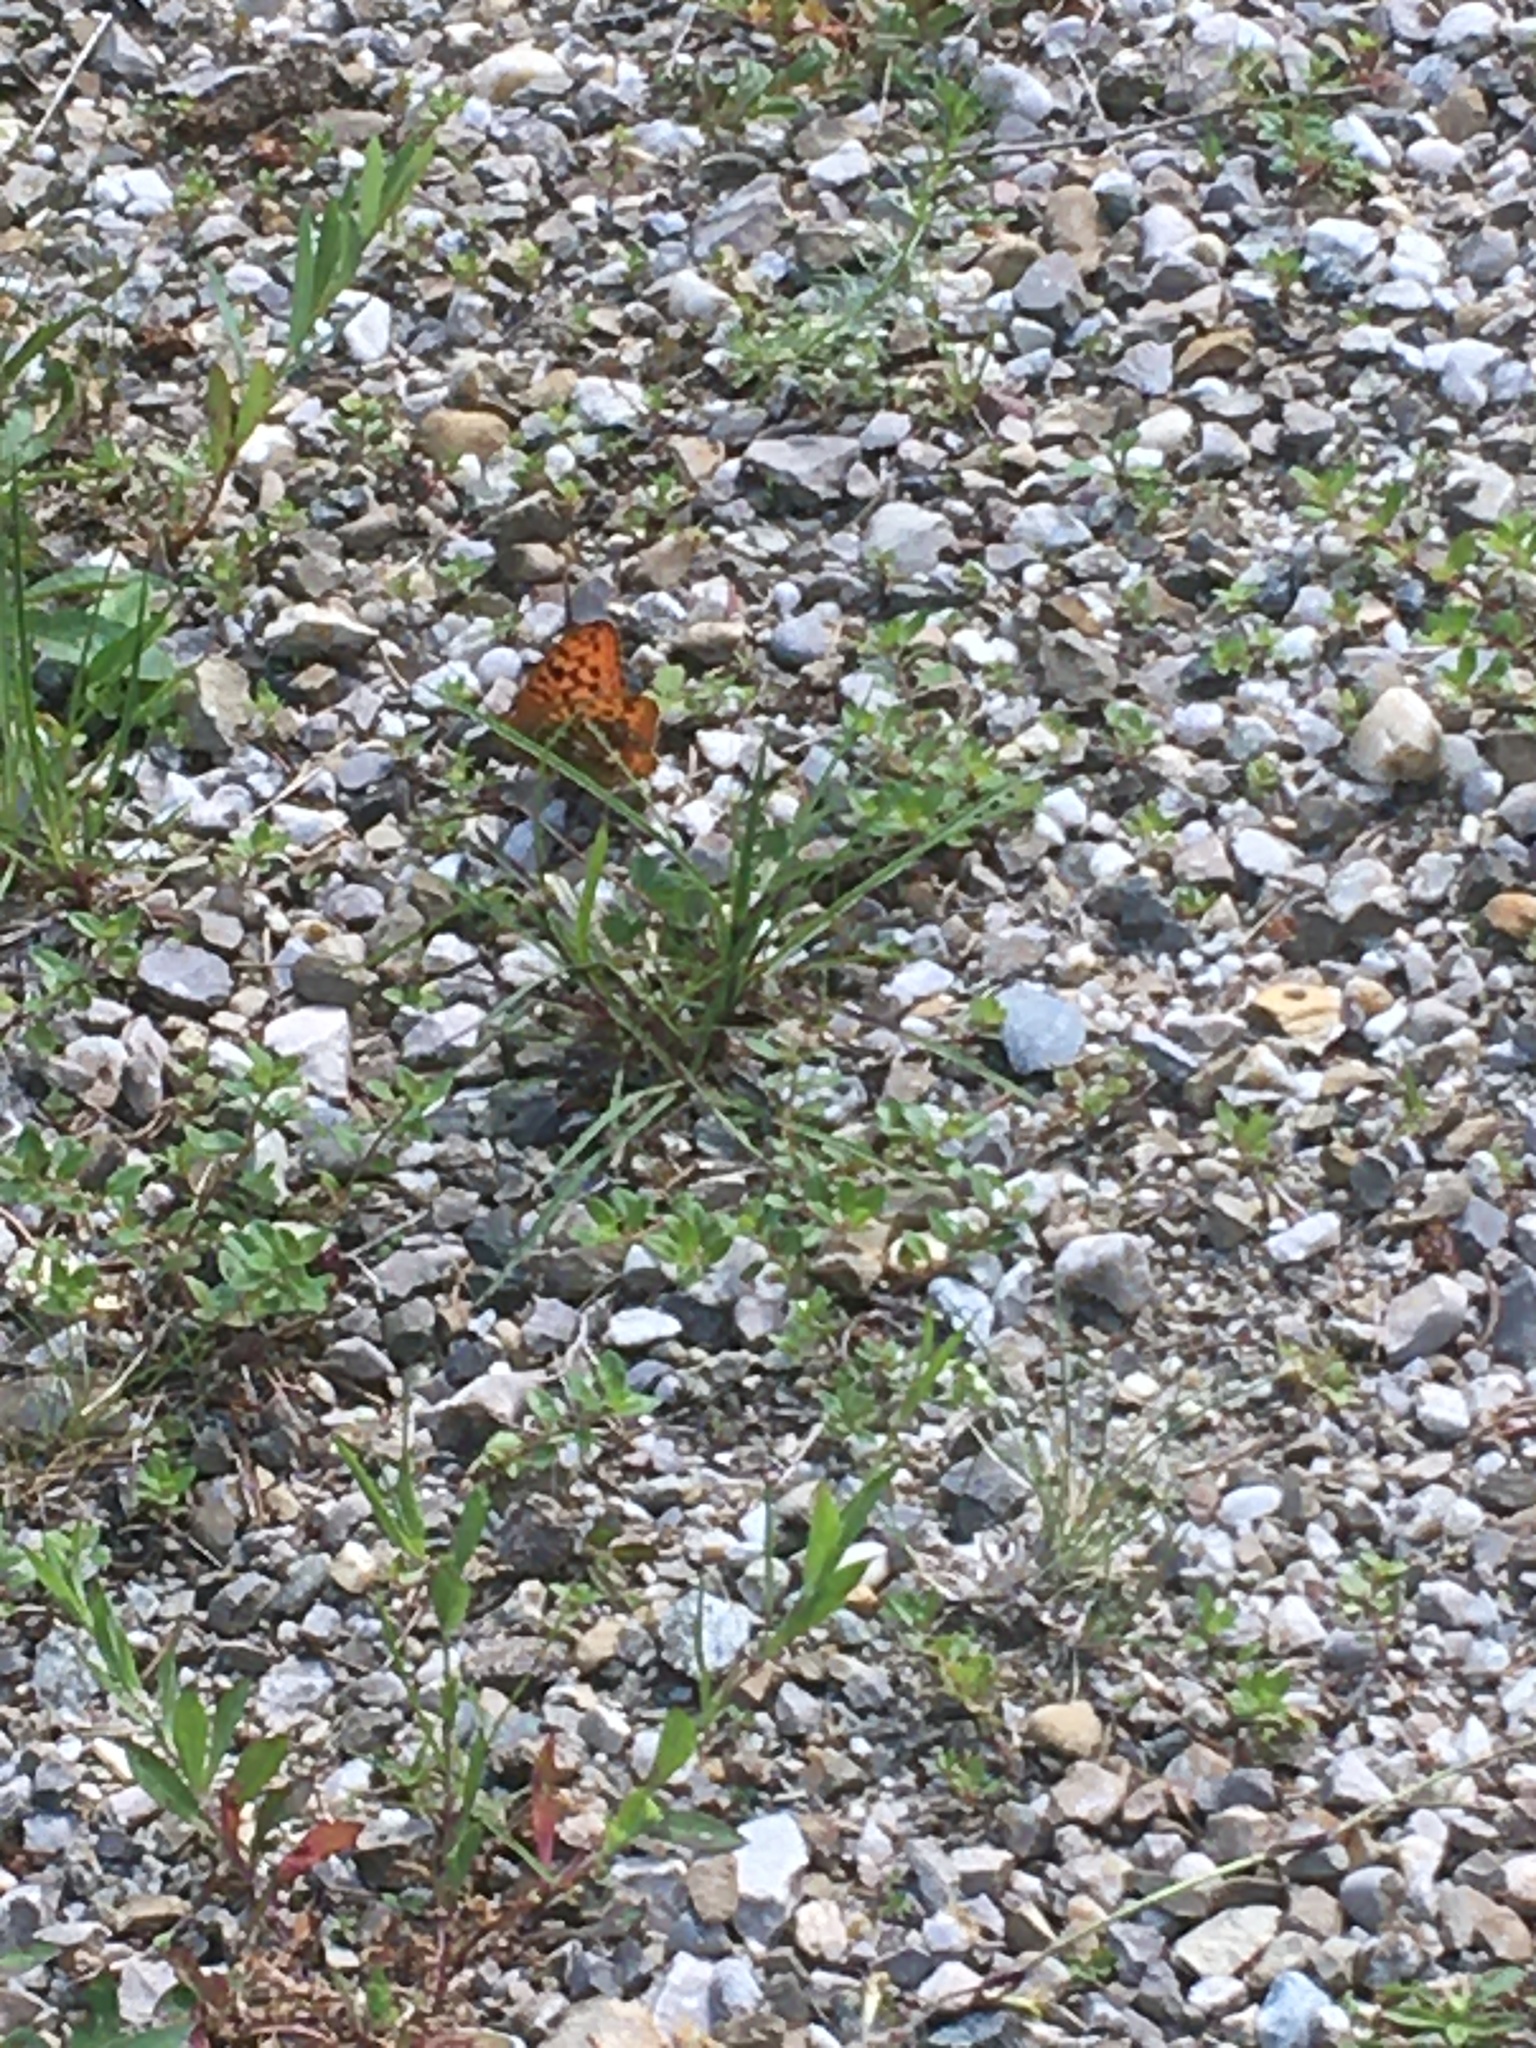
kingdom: Animalia
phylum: Arthropoda
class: Insecta
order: Lepidoptera
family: Nymphalidae
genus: Fabriciana
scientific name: Fabriciana adippe
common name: High brown fritillary
